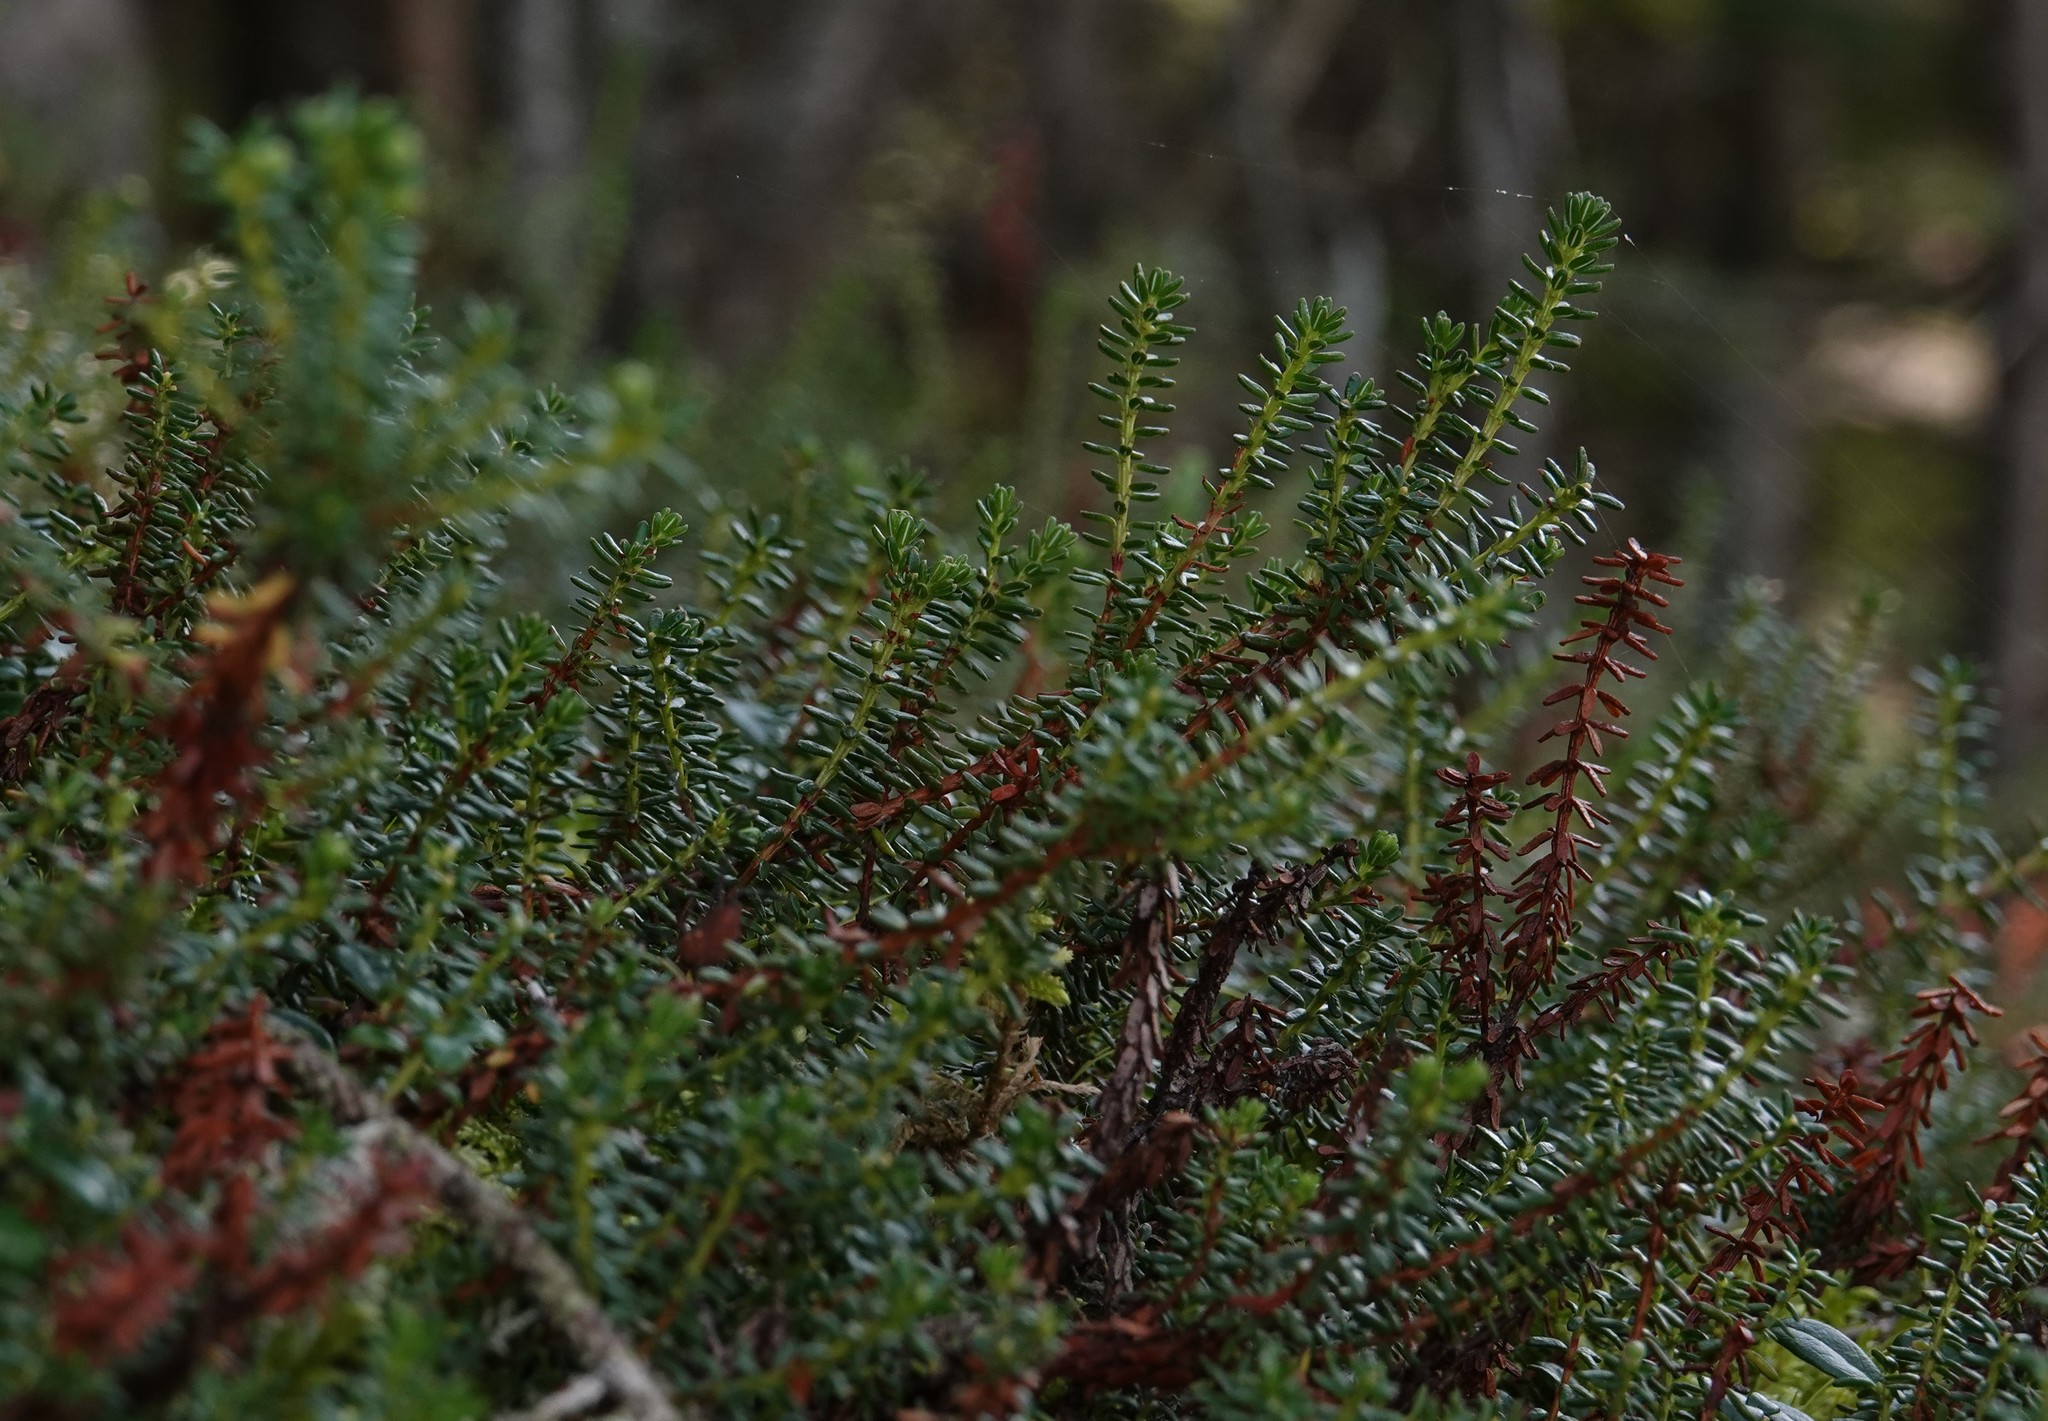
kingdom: Plantae
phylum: Tracheophyta
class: Magnoliopsida
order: Ericales
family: Ericaceae
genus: Empetrum
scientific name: Empetrum nigrum
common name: Black crowberry
